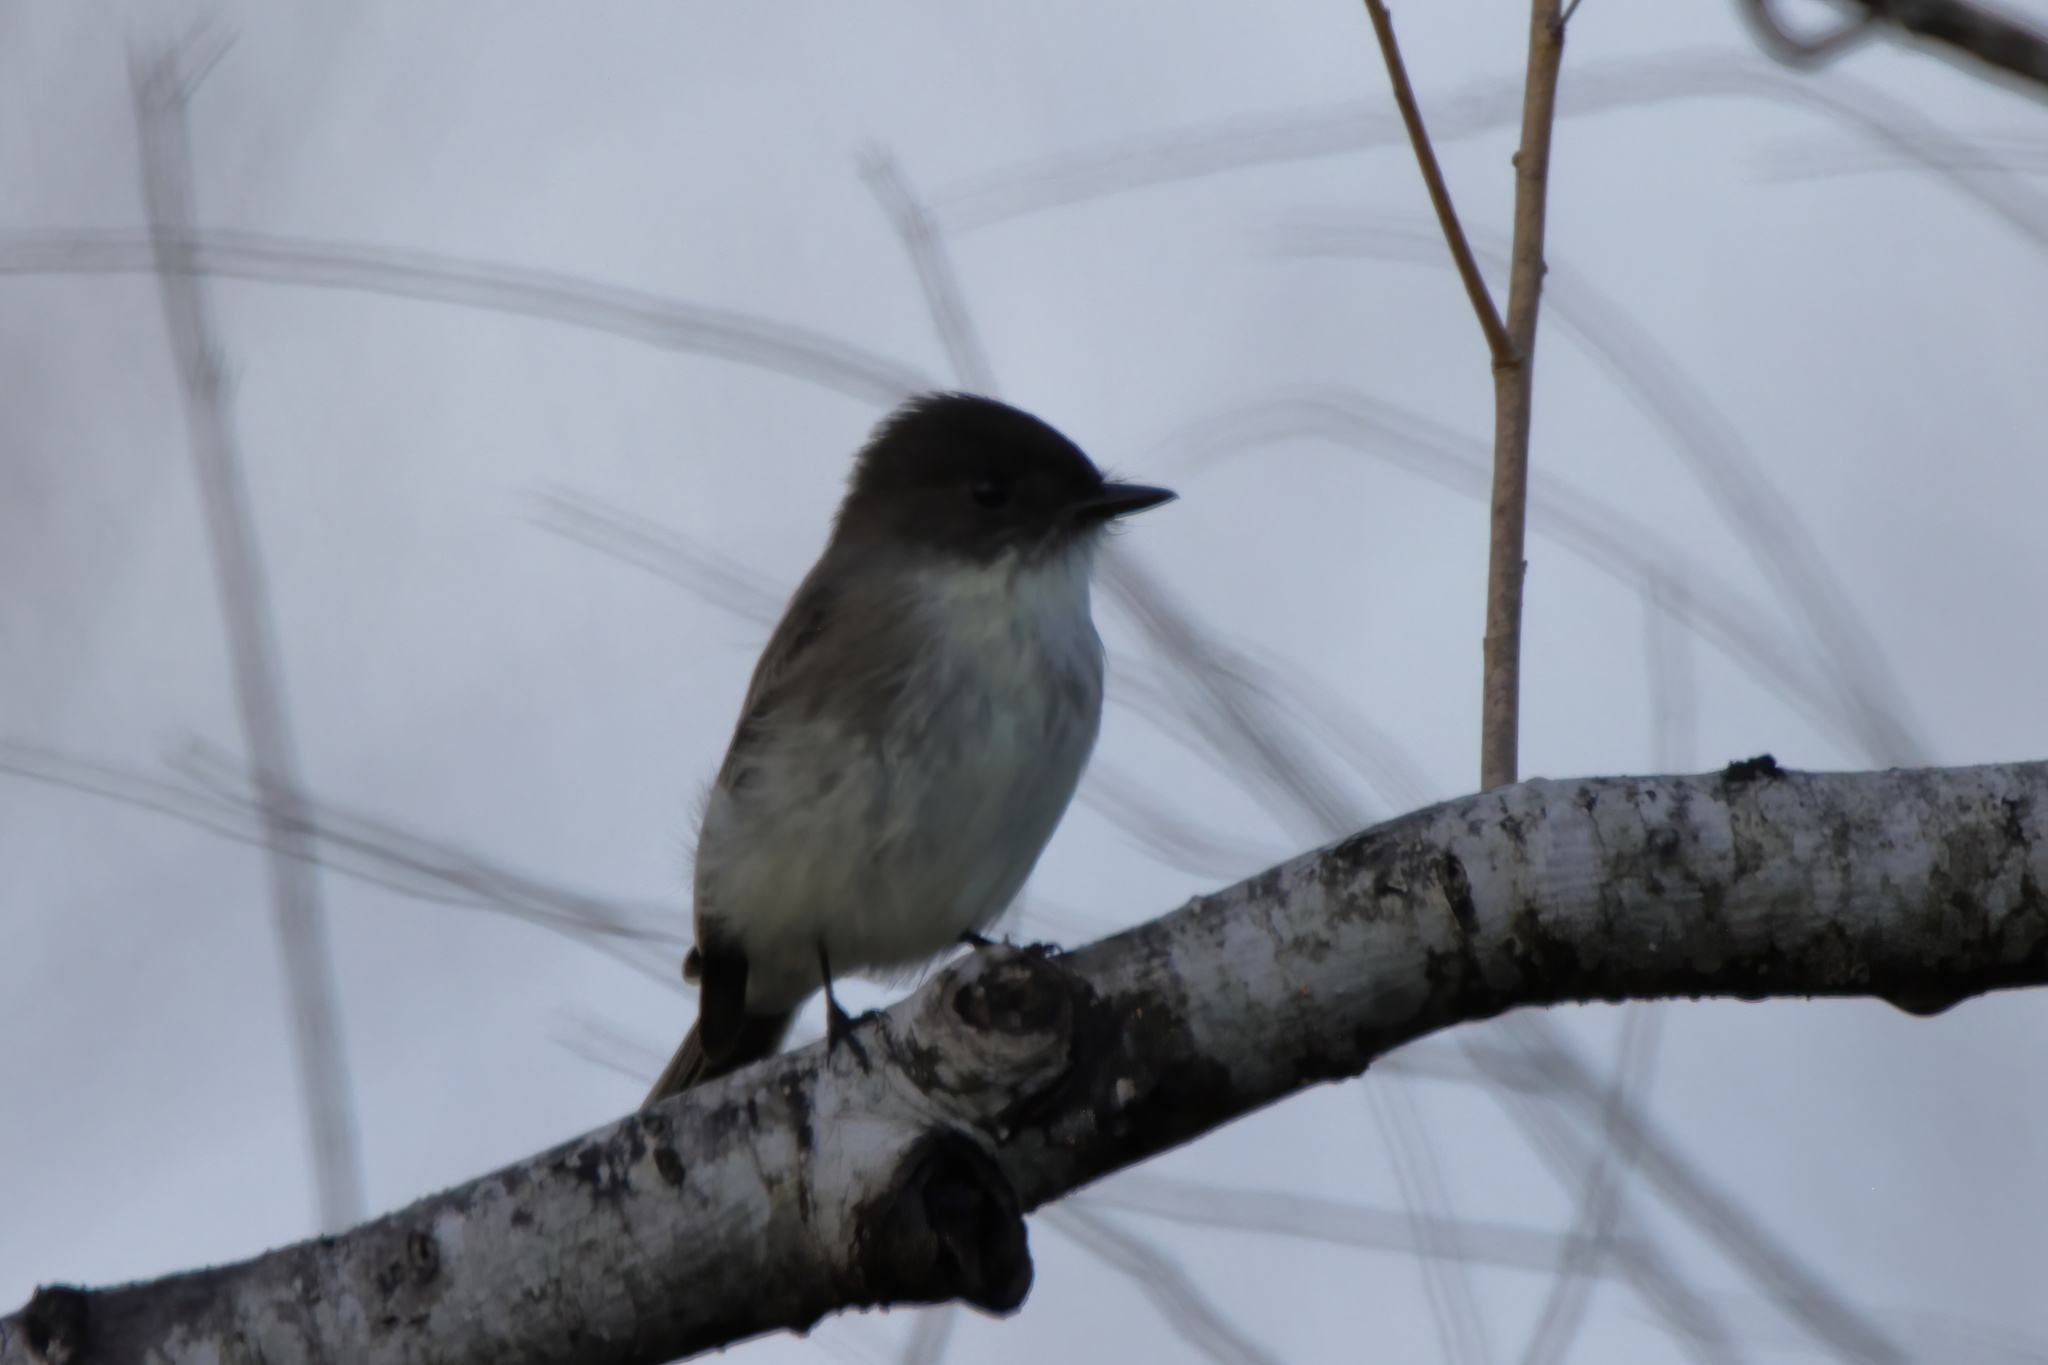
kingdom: Animalia
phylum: Chordata
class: Aves
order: Passeriformes
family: Tyrannidae
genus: Sayornis
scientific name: Sayornis phoebe
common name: Eastern phoebe
